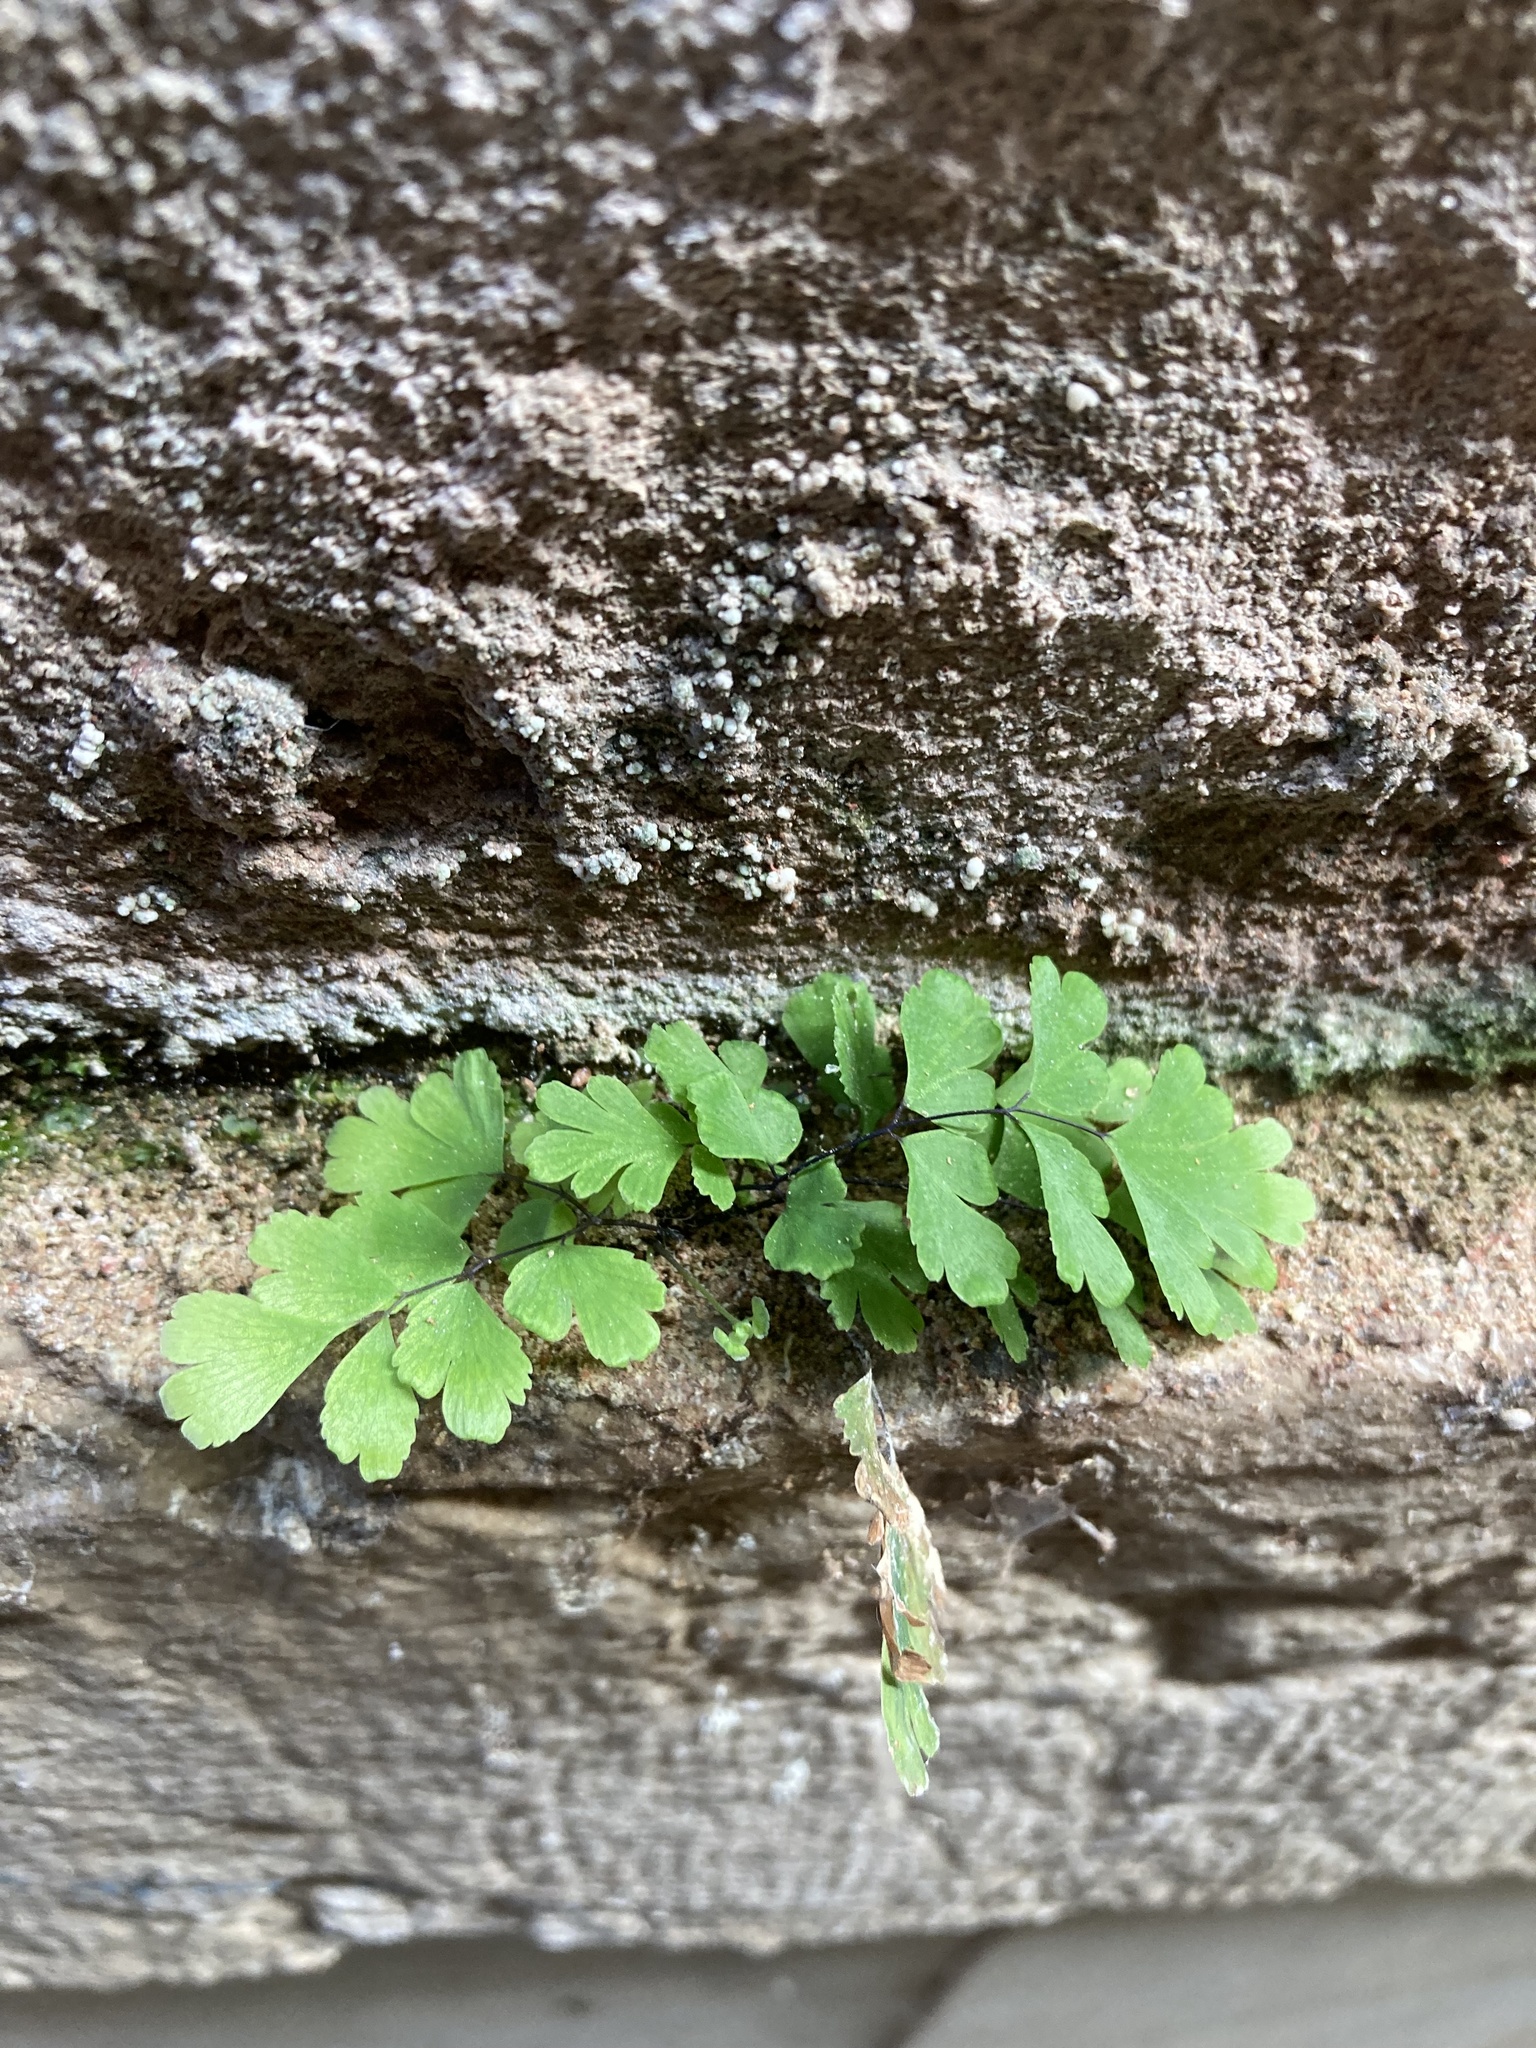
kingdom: Plantae
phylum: Tracheophyta
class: Polypodiopsida
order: Polypodiales
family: Pteridaceae
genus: Adiantum
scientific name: Adiantum capillus-veneris
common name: Maidenhair fern
